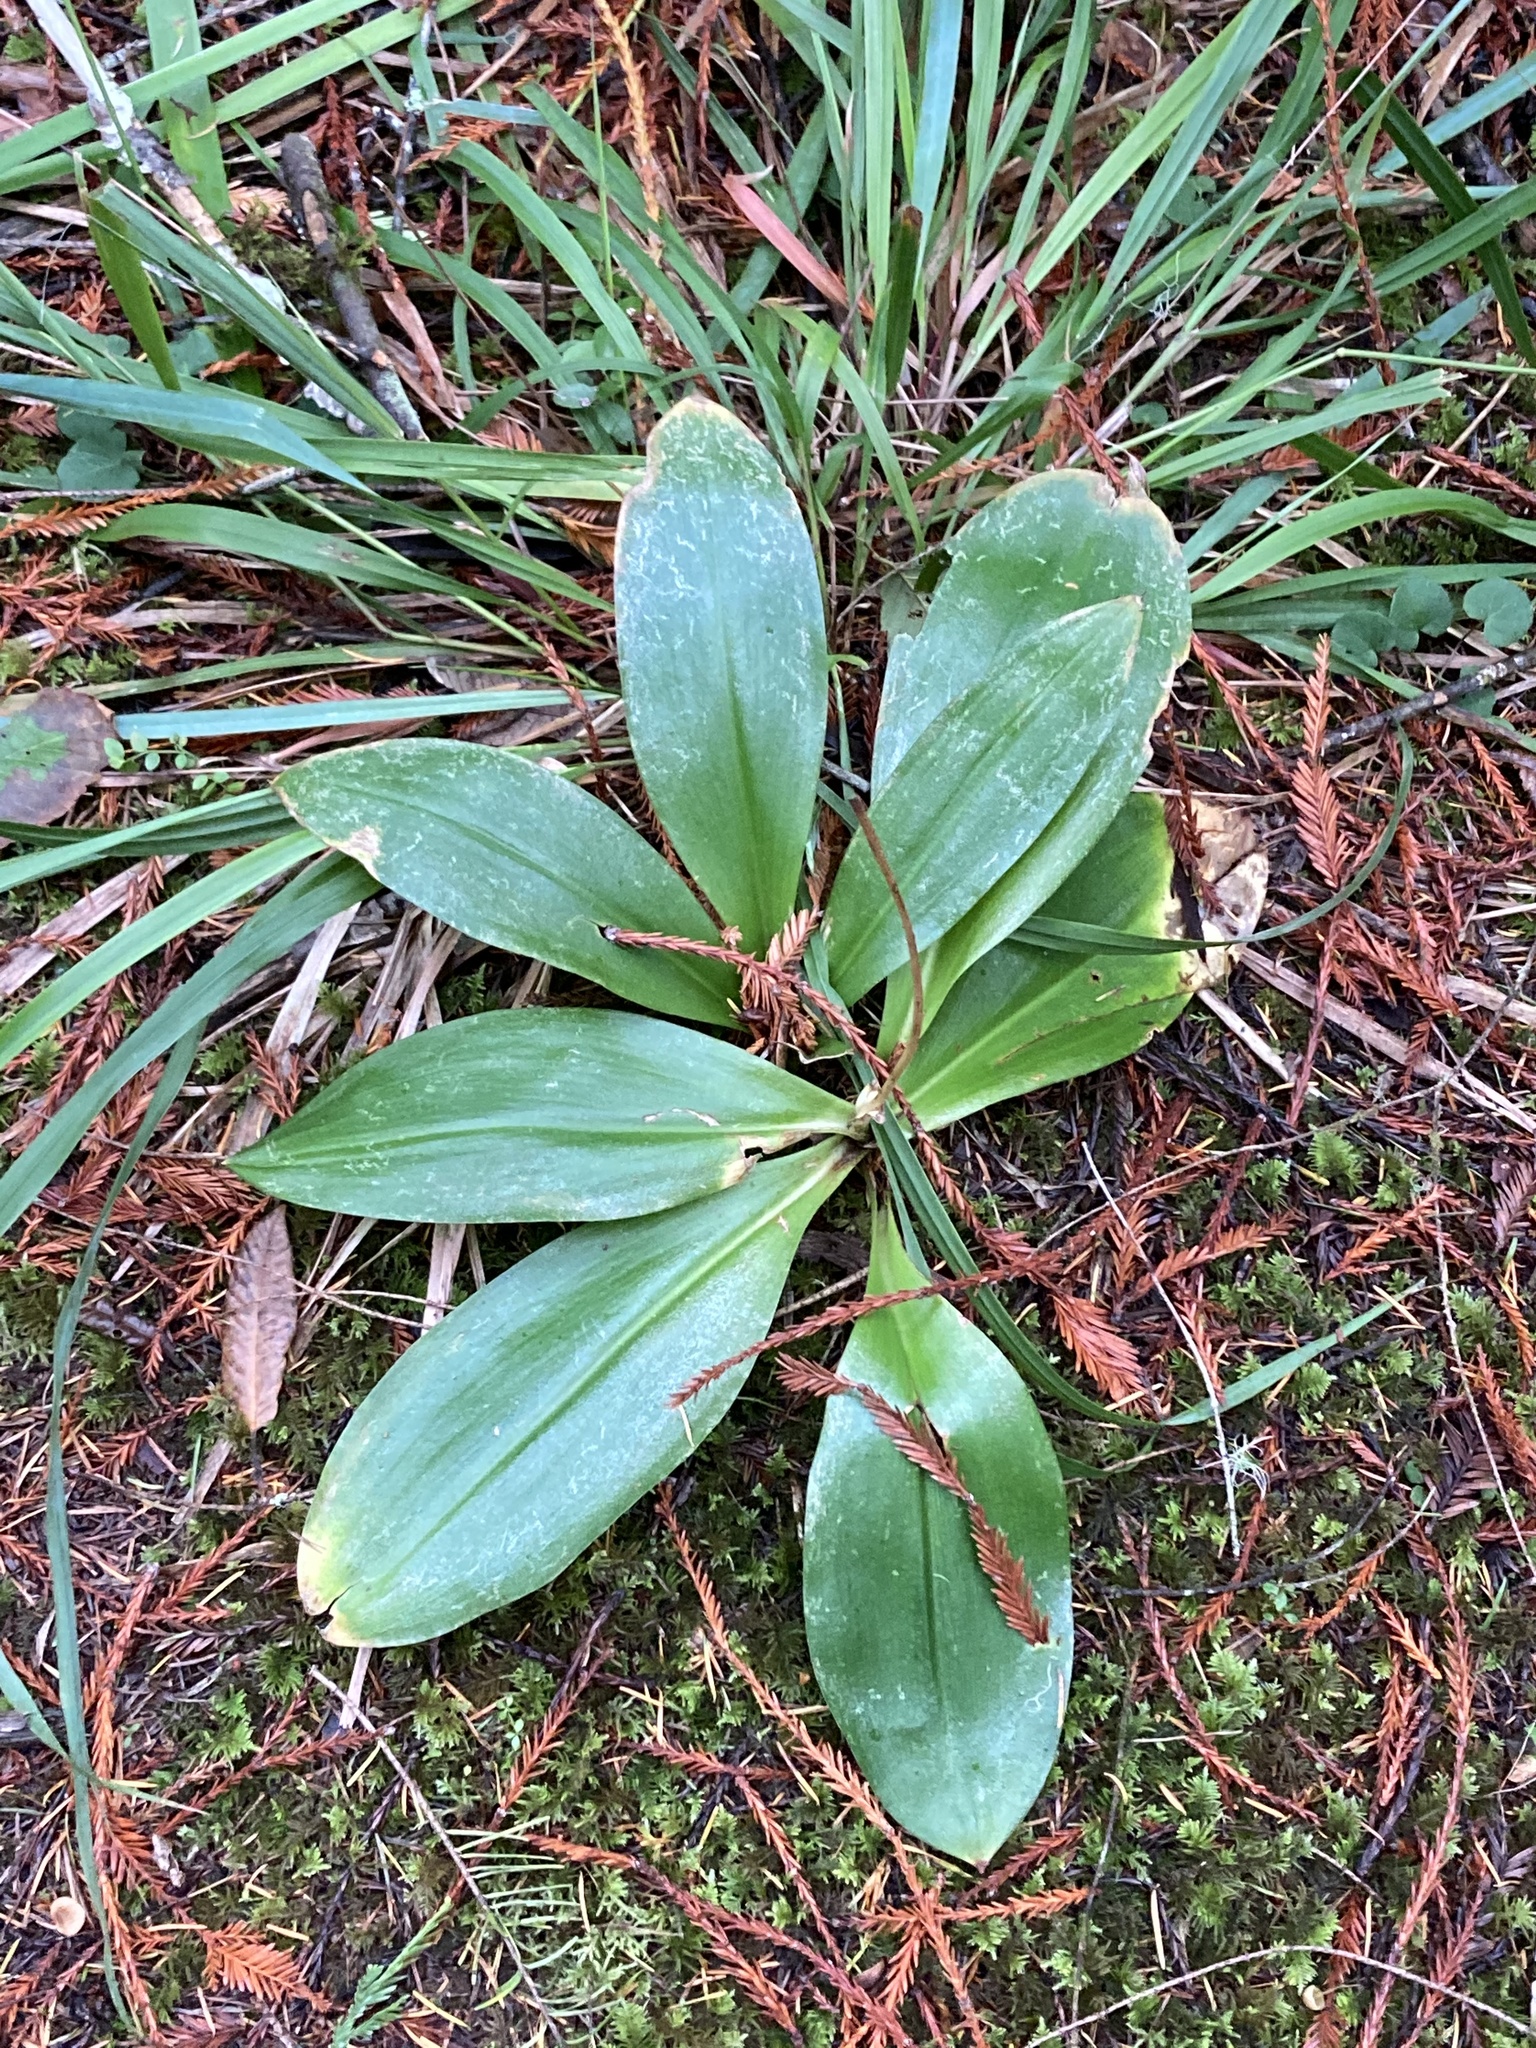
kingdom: Plantae
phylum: Tracheophyta
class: Liliopsida
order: Liliales
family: Liliaceae
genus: Clintonia
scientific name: Clintonia andrewsiana
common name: Red clintonia
